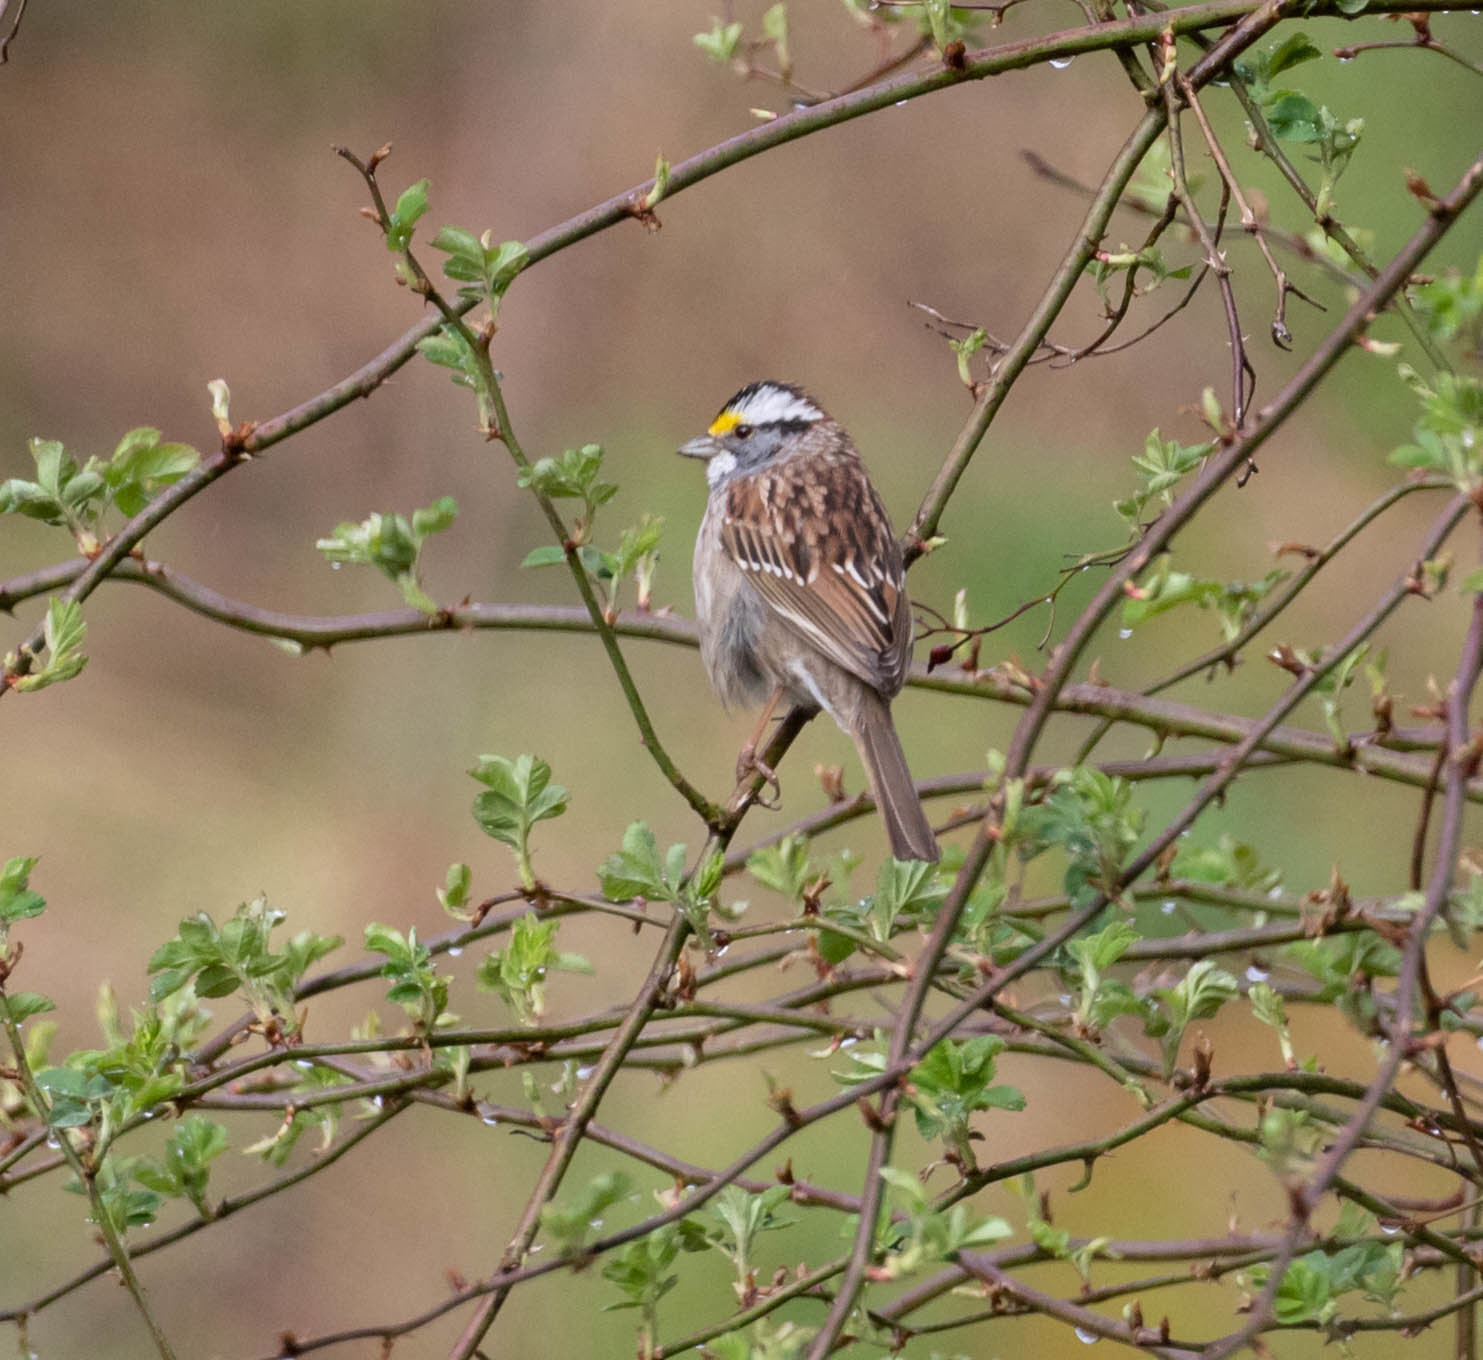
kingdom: Animalia
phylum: Chordata
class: Aves
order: Passeriformes
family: Passerellidae
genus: Zonotrichia
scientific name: Zonotrichia albicollis
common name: White-throated sparrow
